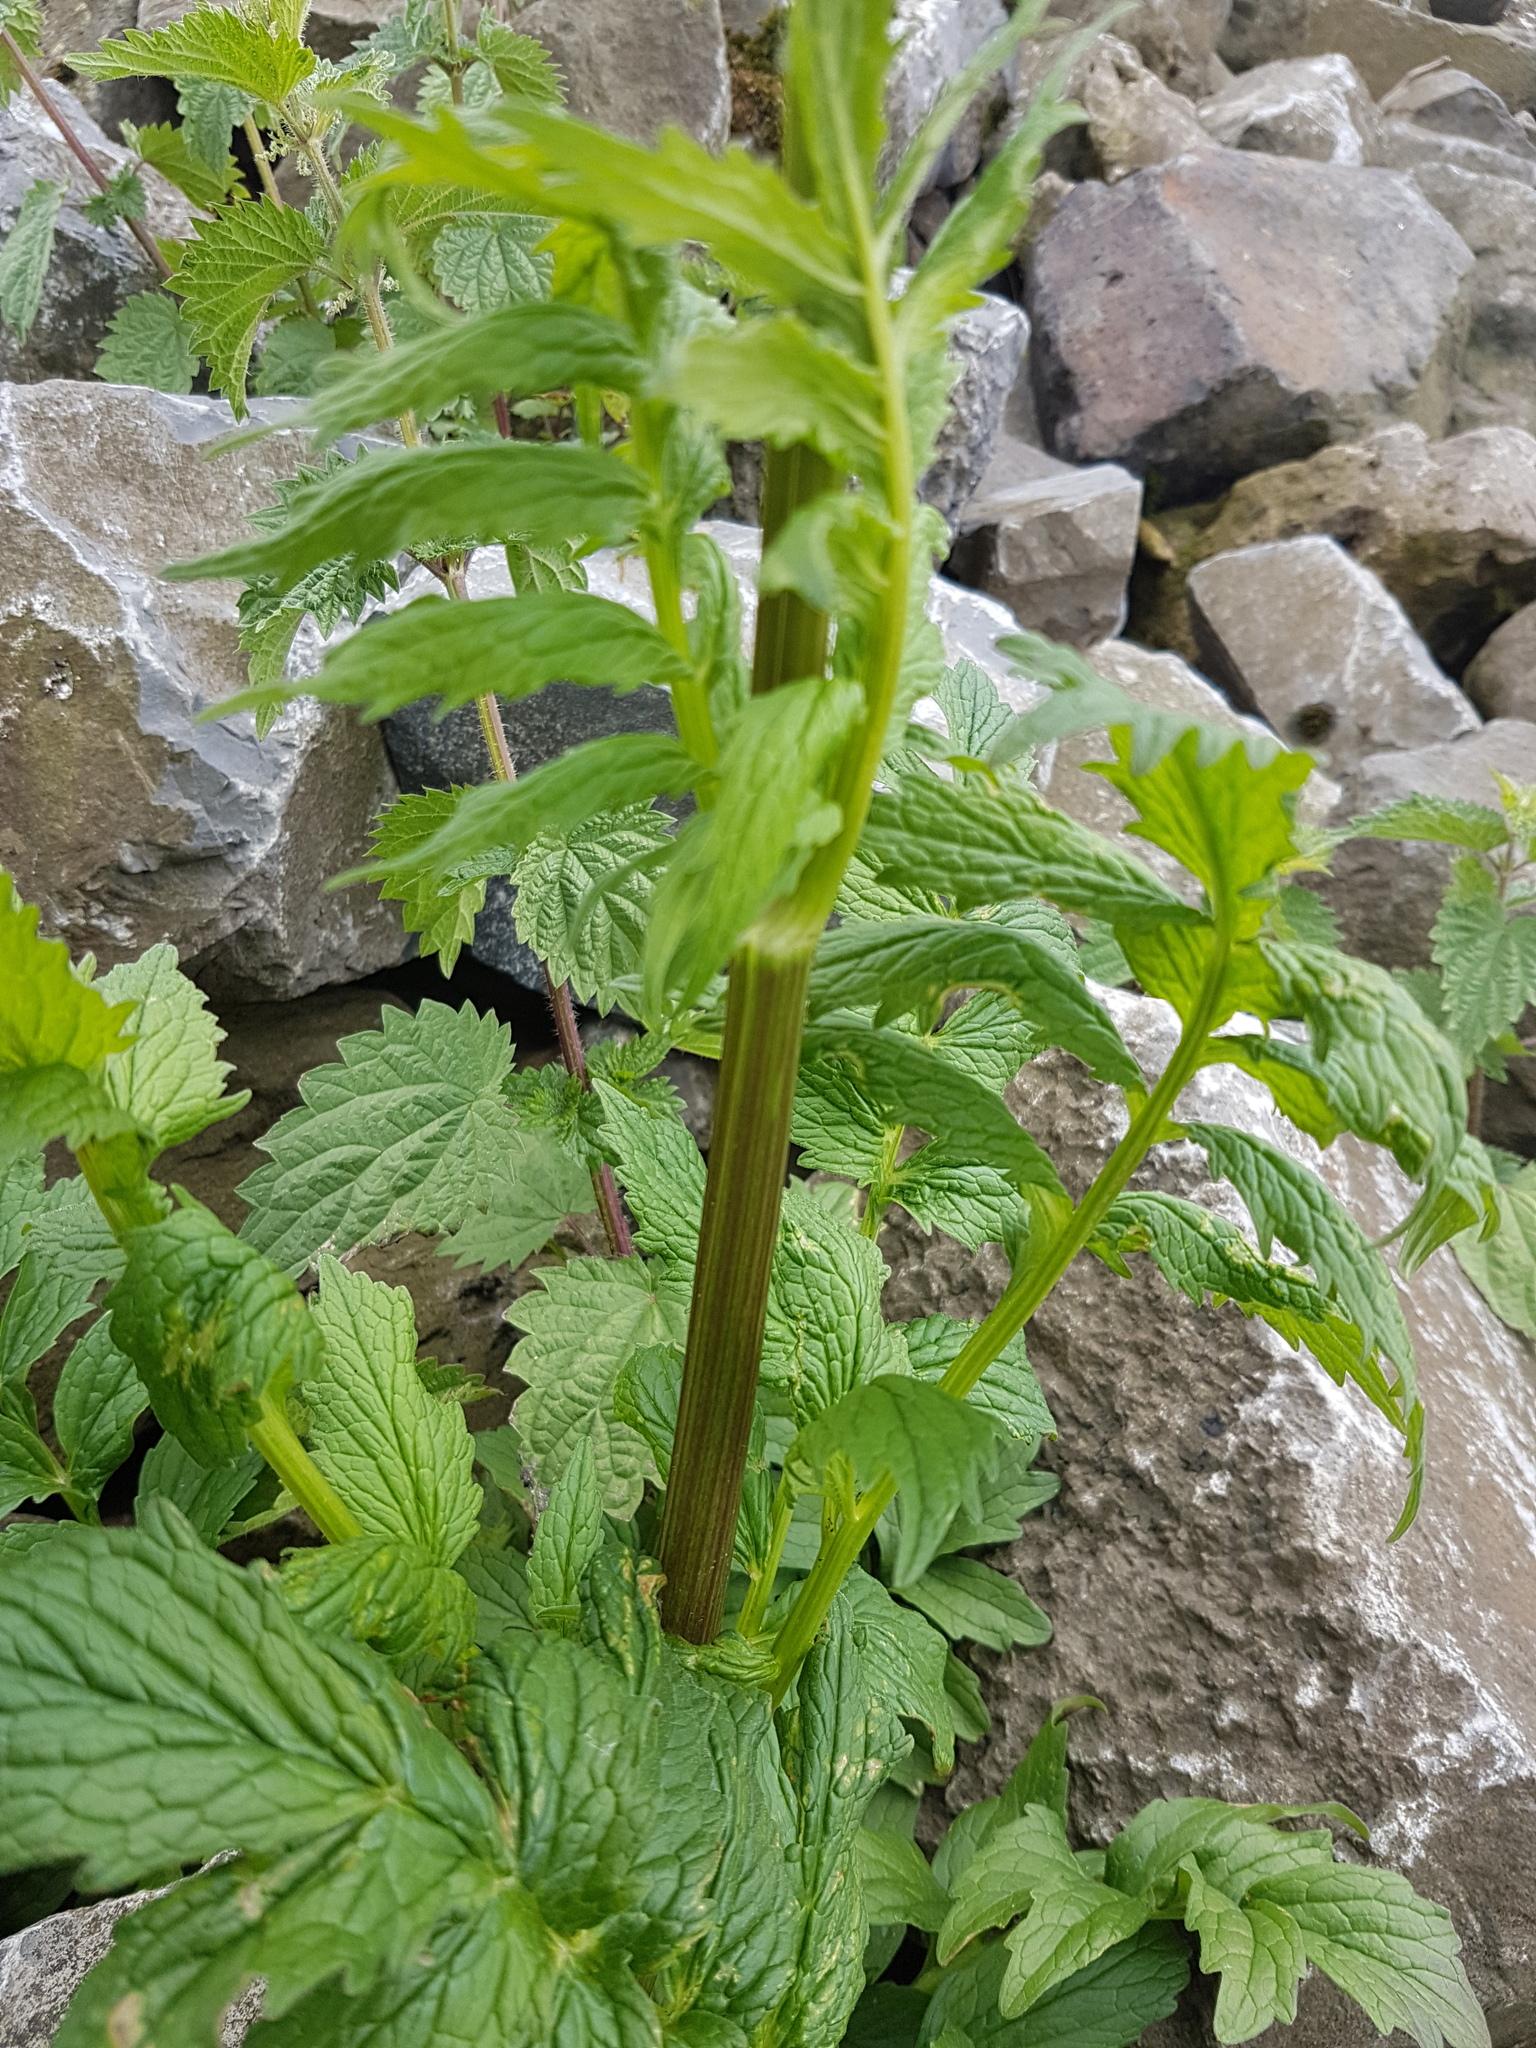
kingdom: Plantae
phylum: Tracheophyta
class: Magnoliopsida
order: Dipsacales
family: Caprifoliaceae
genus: Valeriana
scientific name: Valeriana officinalis
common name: Common valerian
